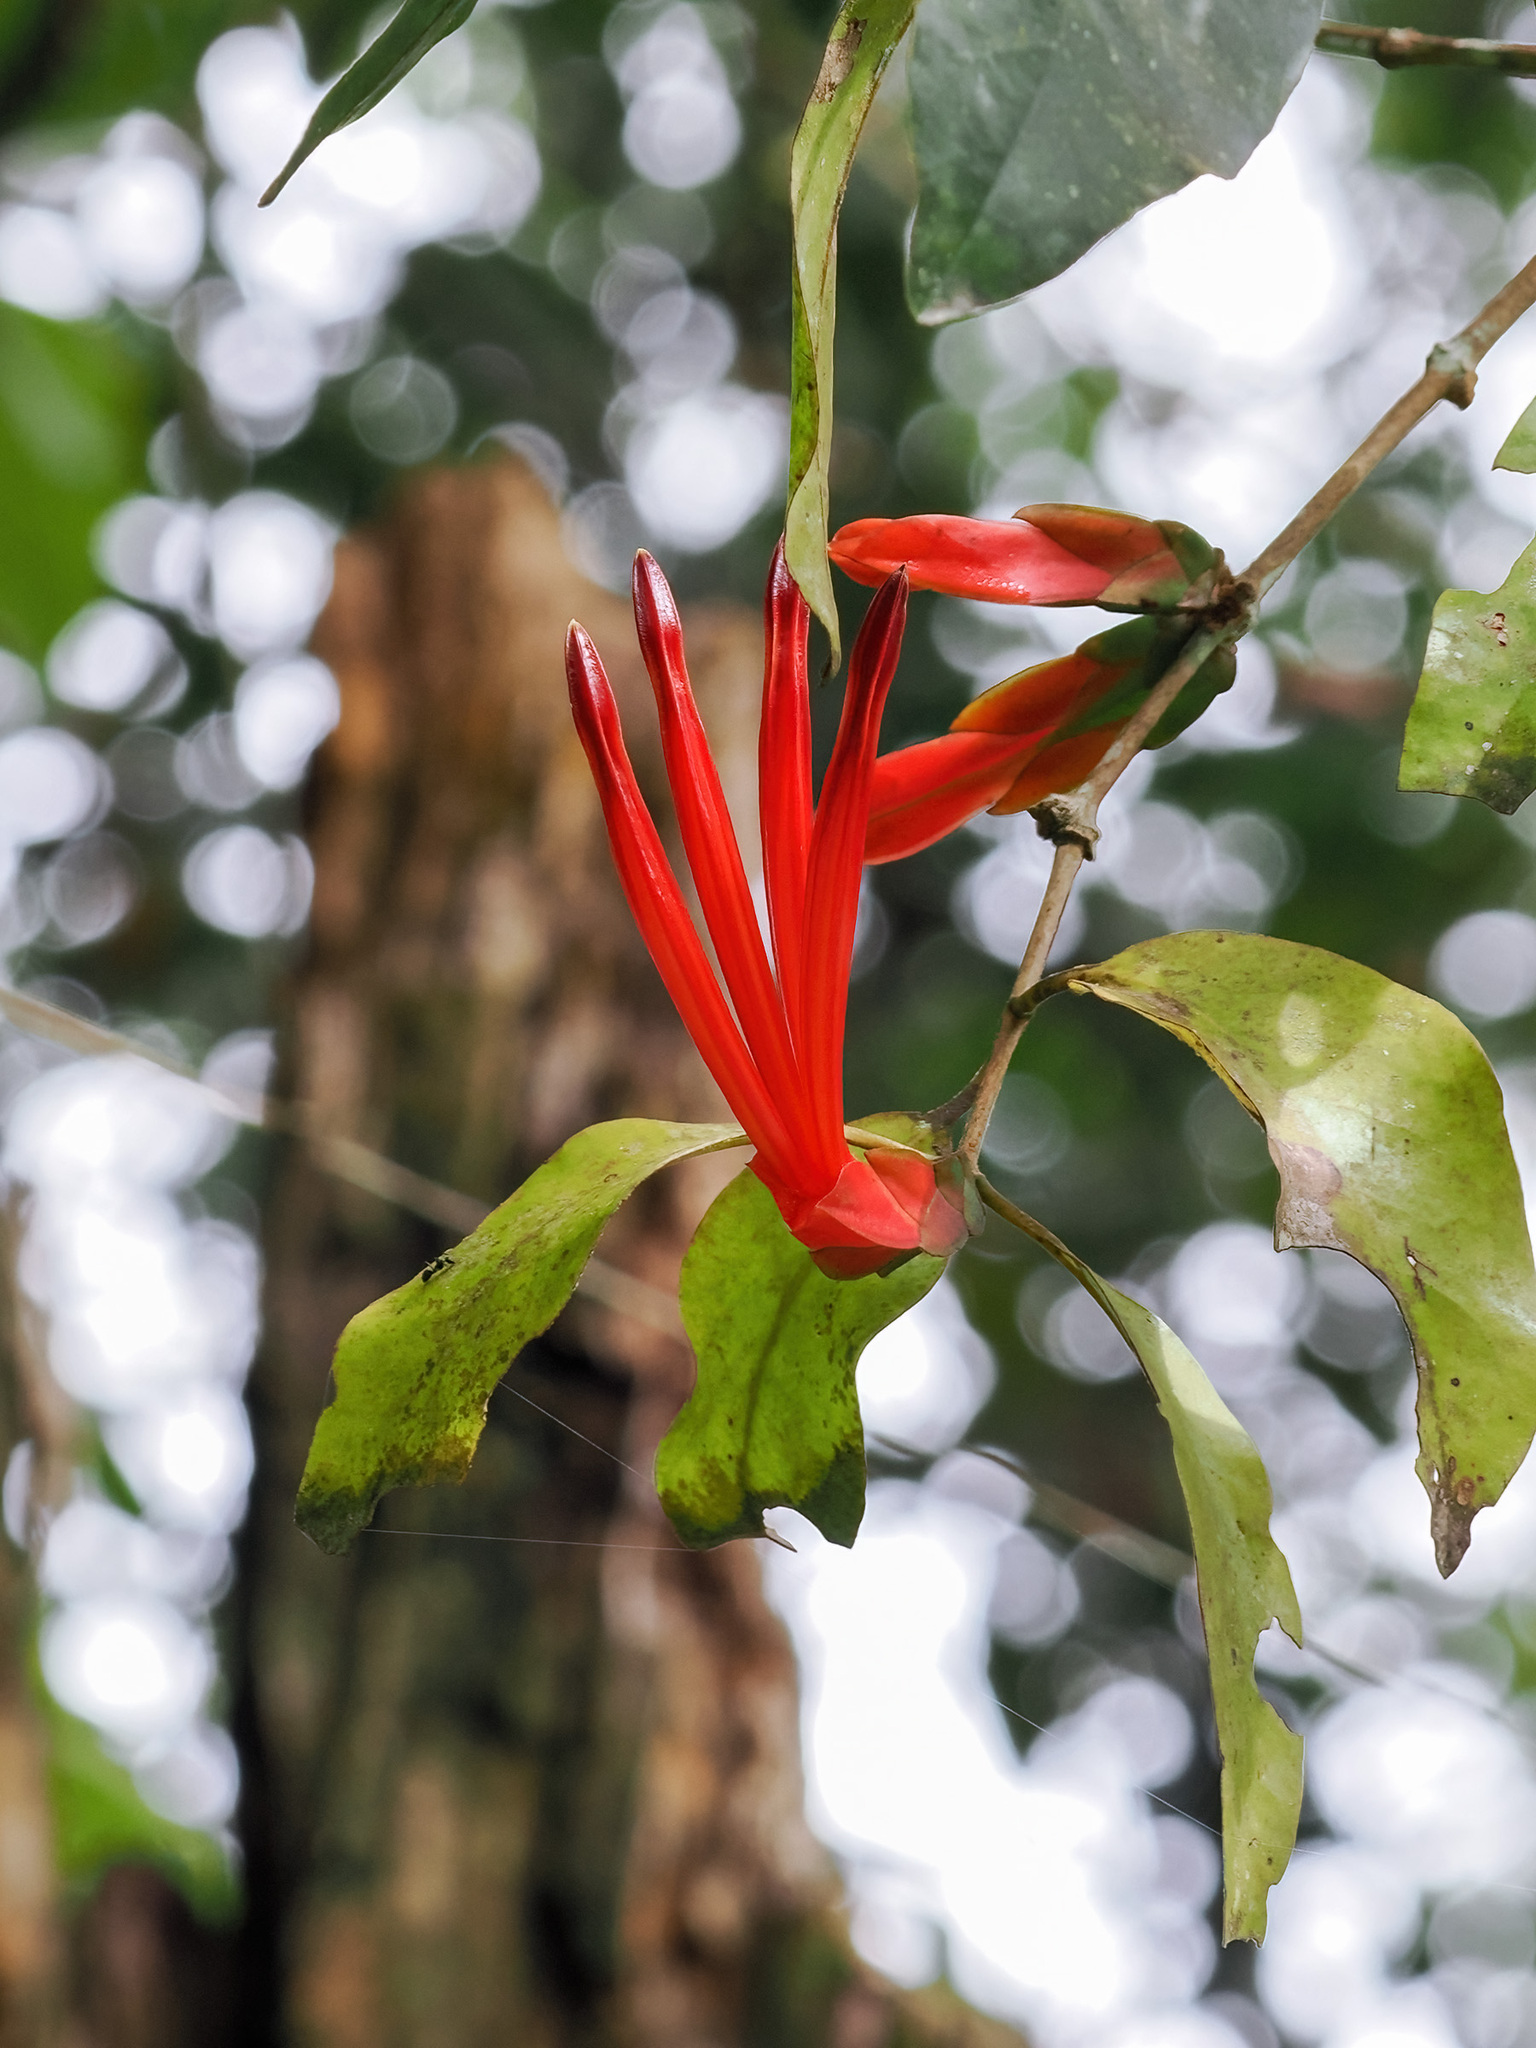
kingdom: Plantae
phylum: Tracheophyta
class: Magnoliopsida
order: Santalales
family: Loranthaceae
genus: Lepidaria
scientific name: Lepidaria kingii
